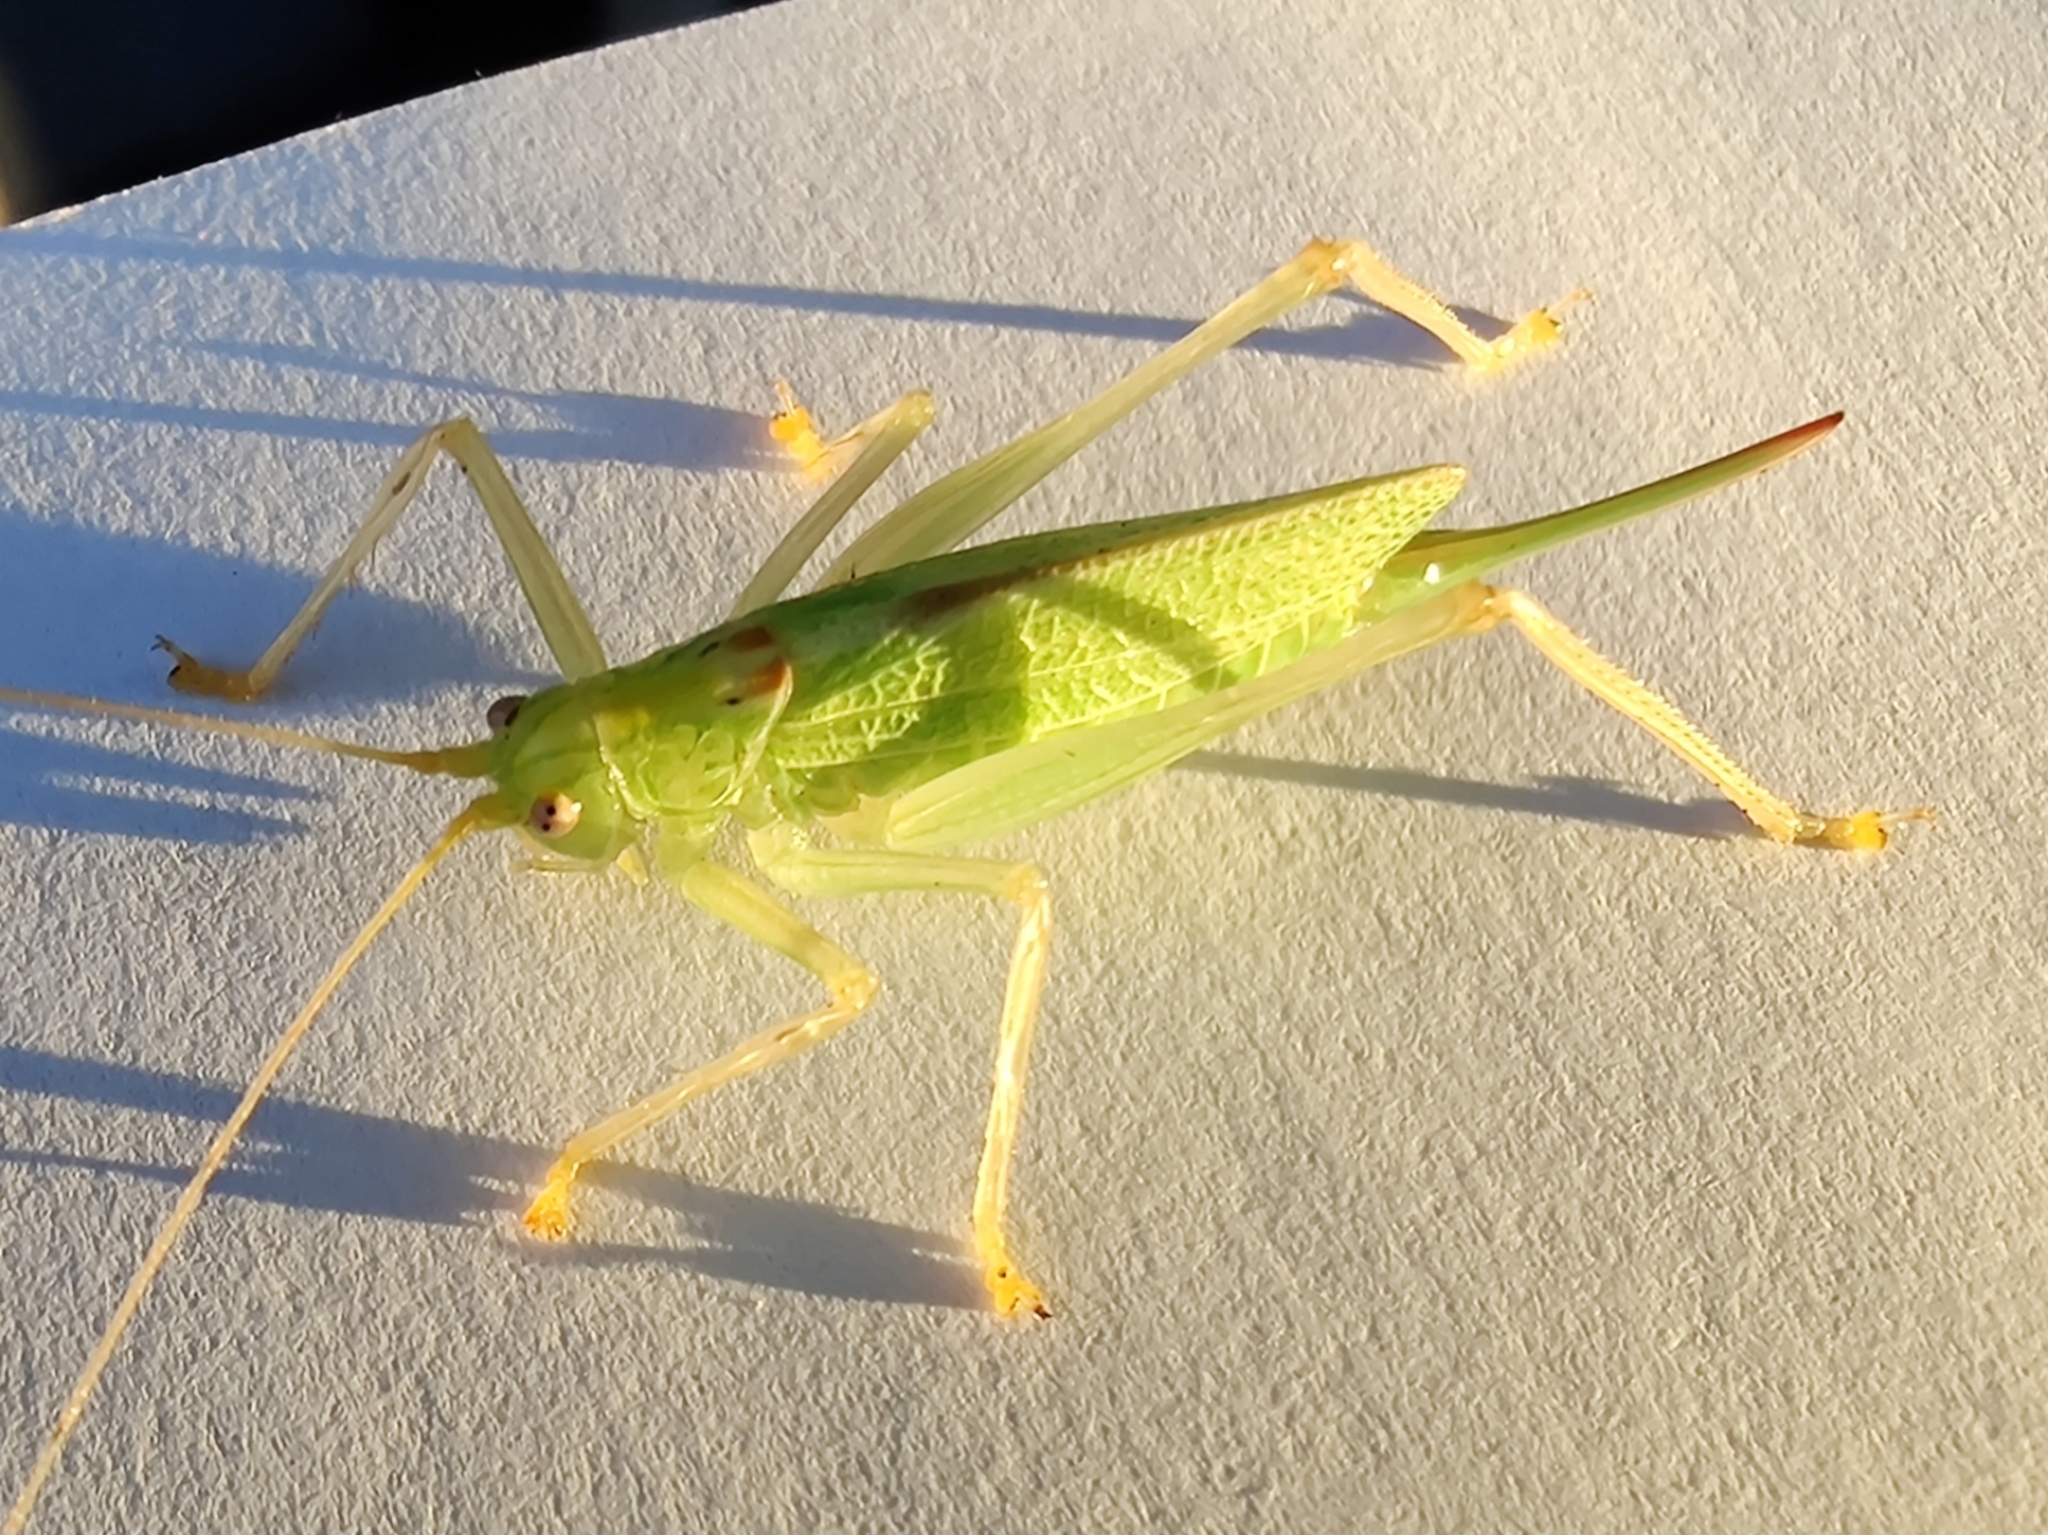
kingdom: Animalia
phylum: Arthropoda
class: Insecta
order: Orthoptera
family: Tettigoniidae
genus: Meconema
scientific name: Meconema thalassinum
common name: Oak bush-cricket
